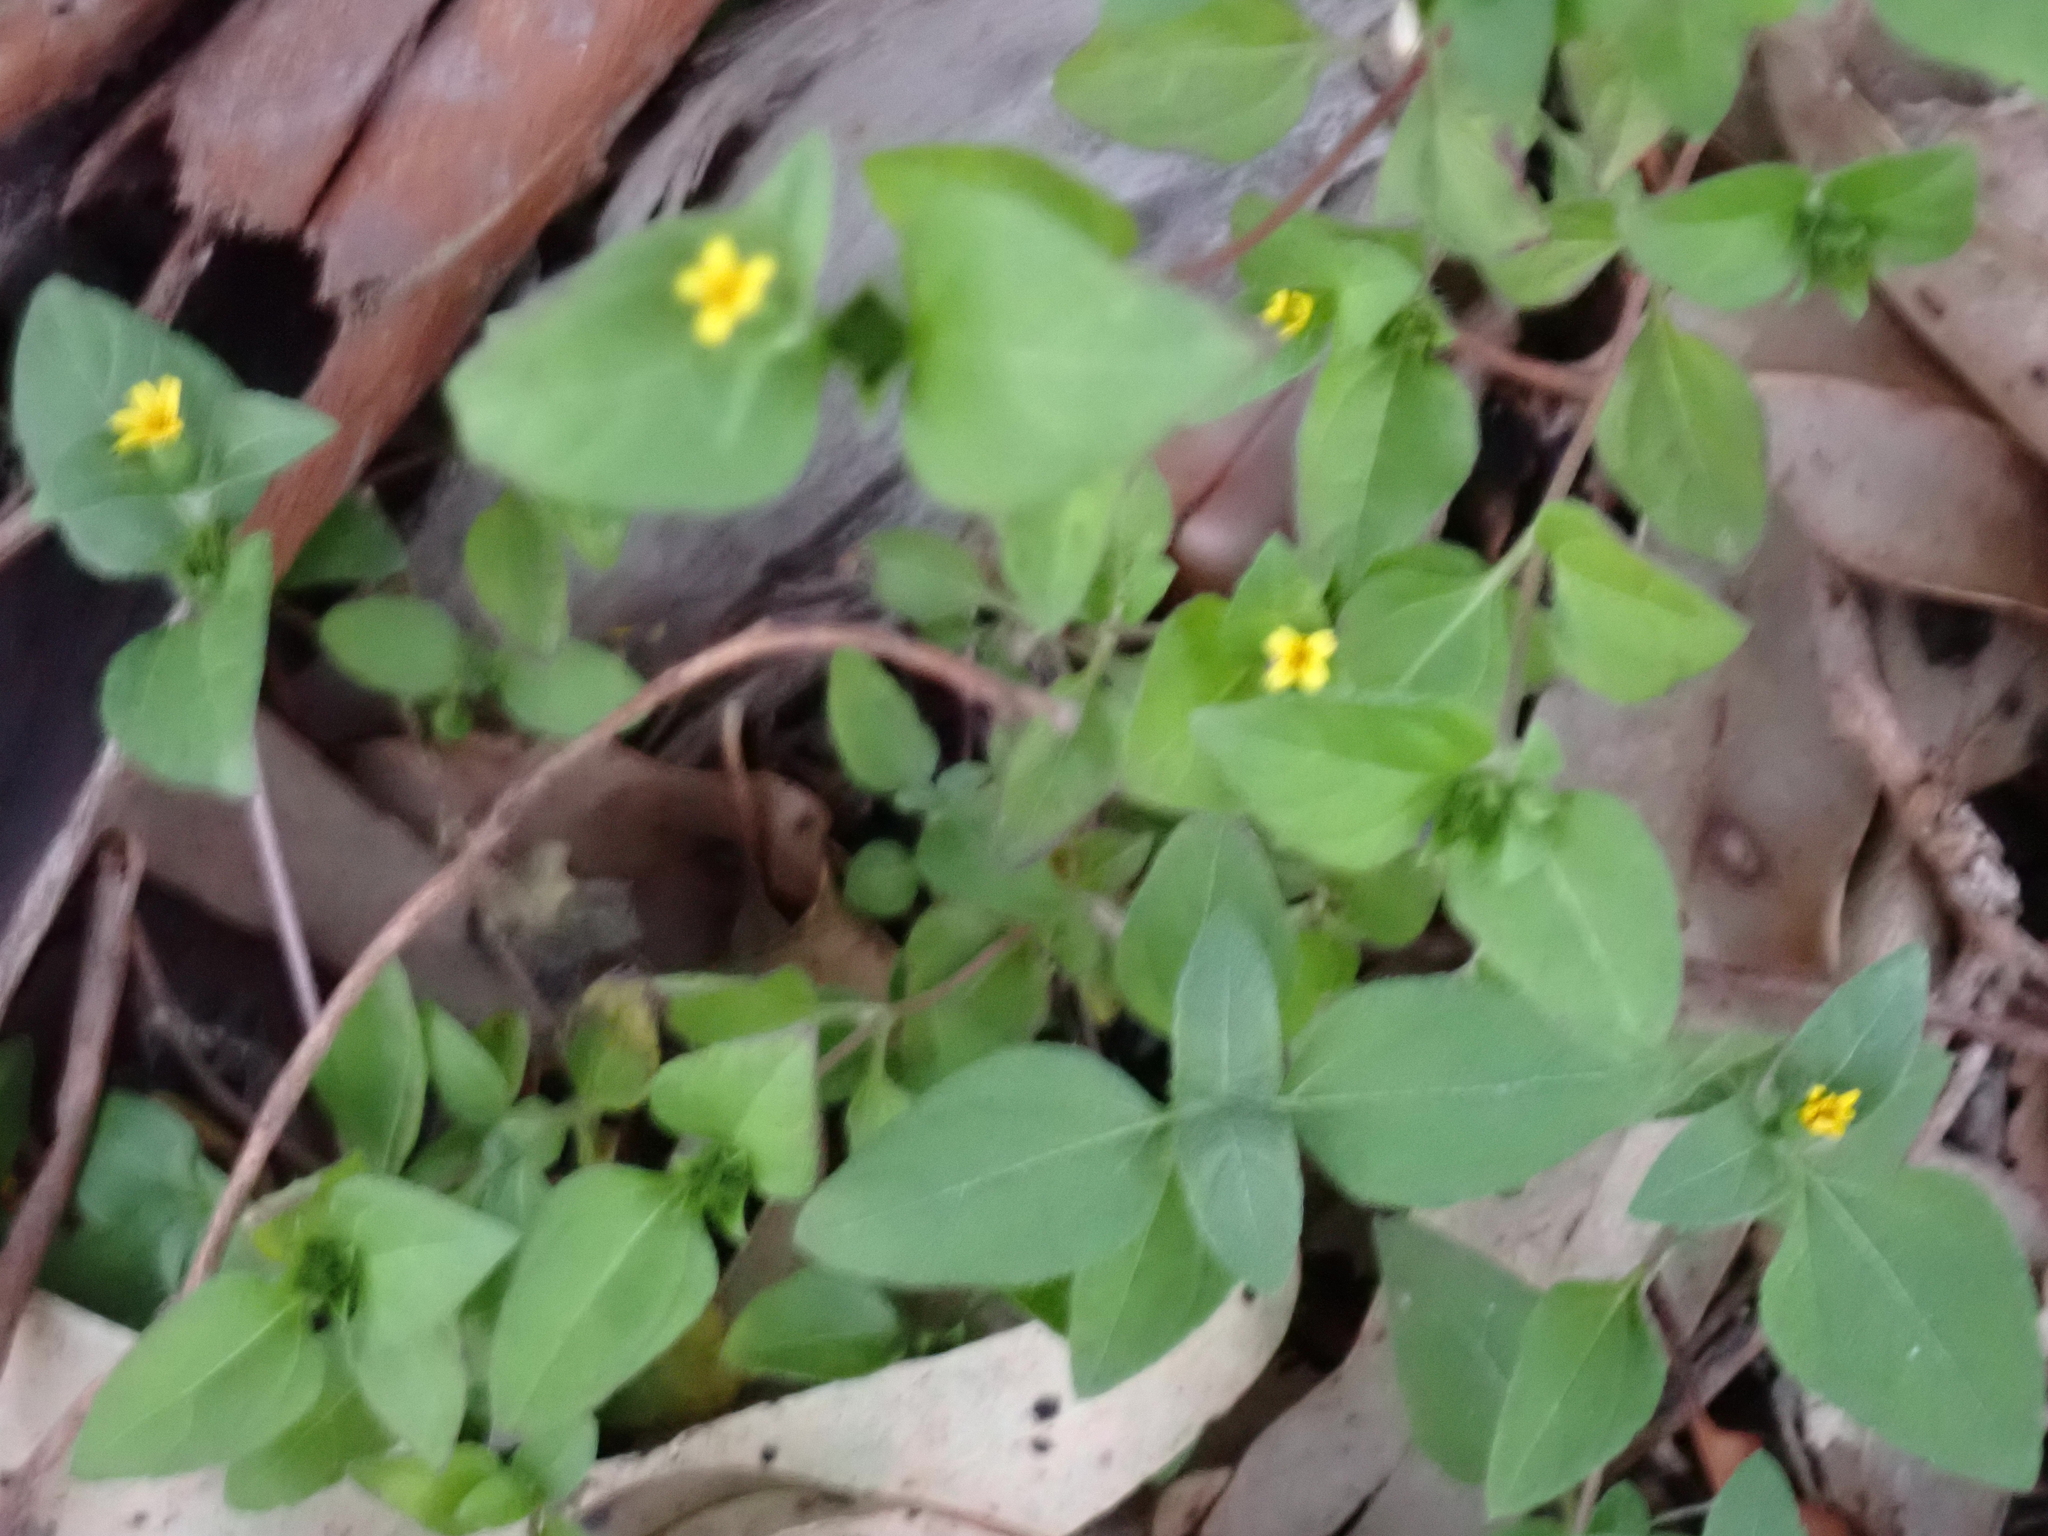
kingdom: Plantae
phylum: Tracheophyta
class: Magnoliopsida
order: Asterales
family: Asteraceae
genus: Calyptocarpus
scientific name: Calyptocarpus vialis
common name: Straggler daisy
